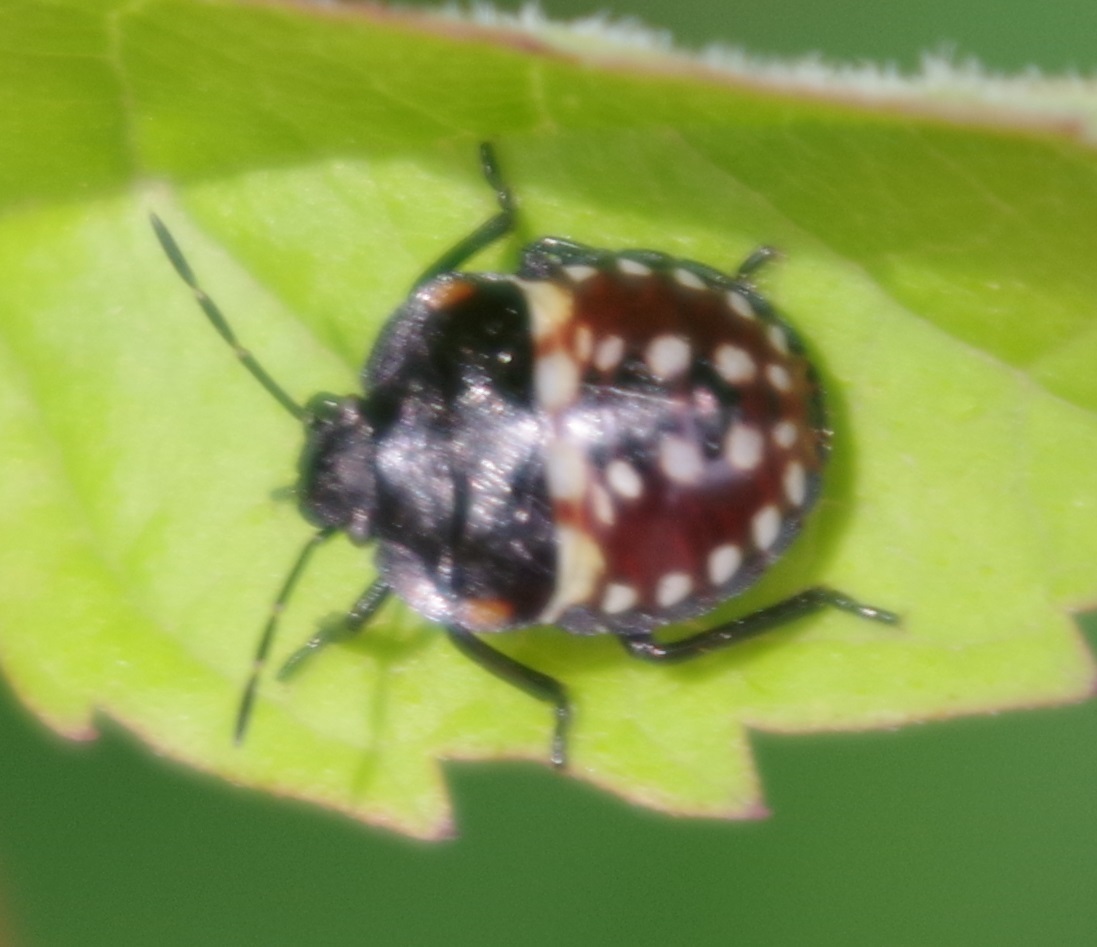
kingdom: Animalia
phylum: Arthropoda
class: Insecta
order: Hemiptera
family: Pentatomidae
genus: Nezara
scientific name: Nezara viridula
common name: Southern green stink bug
